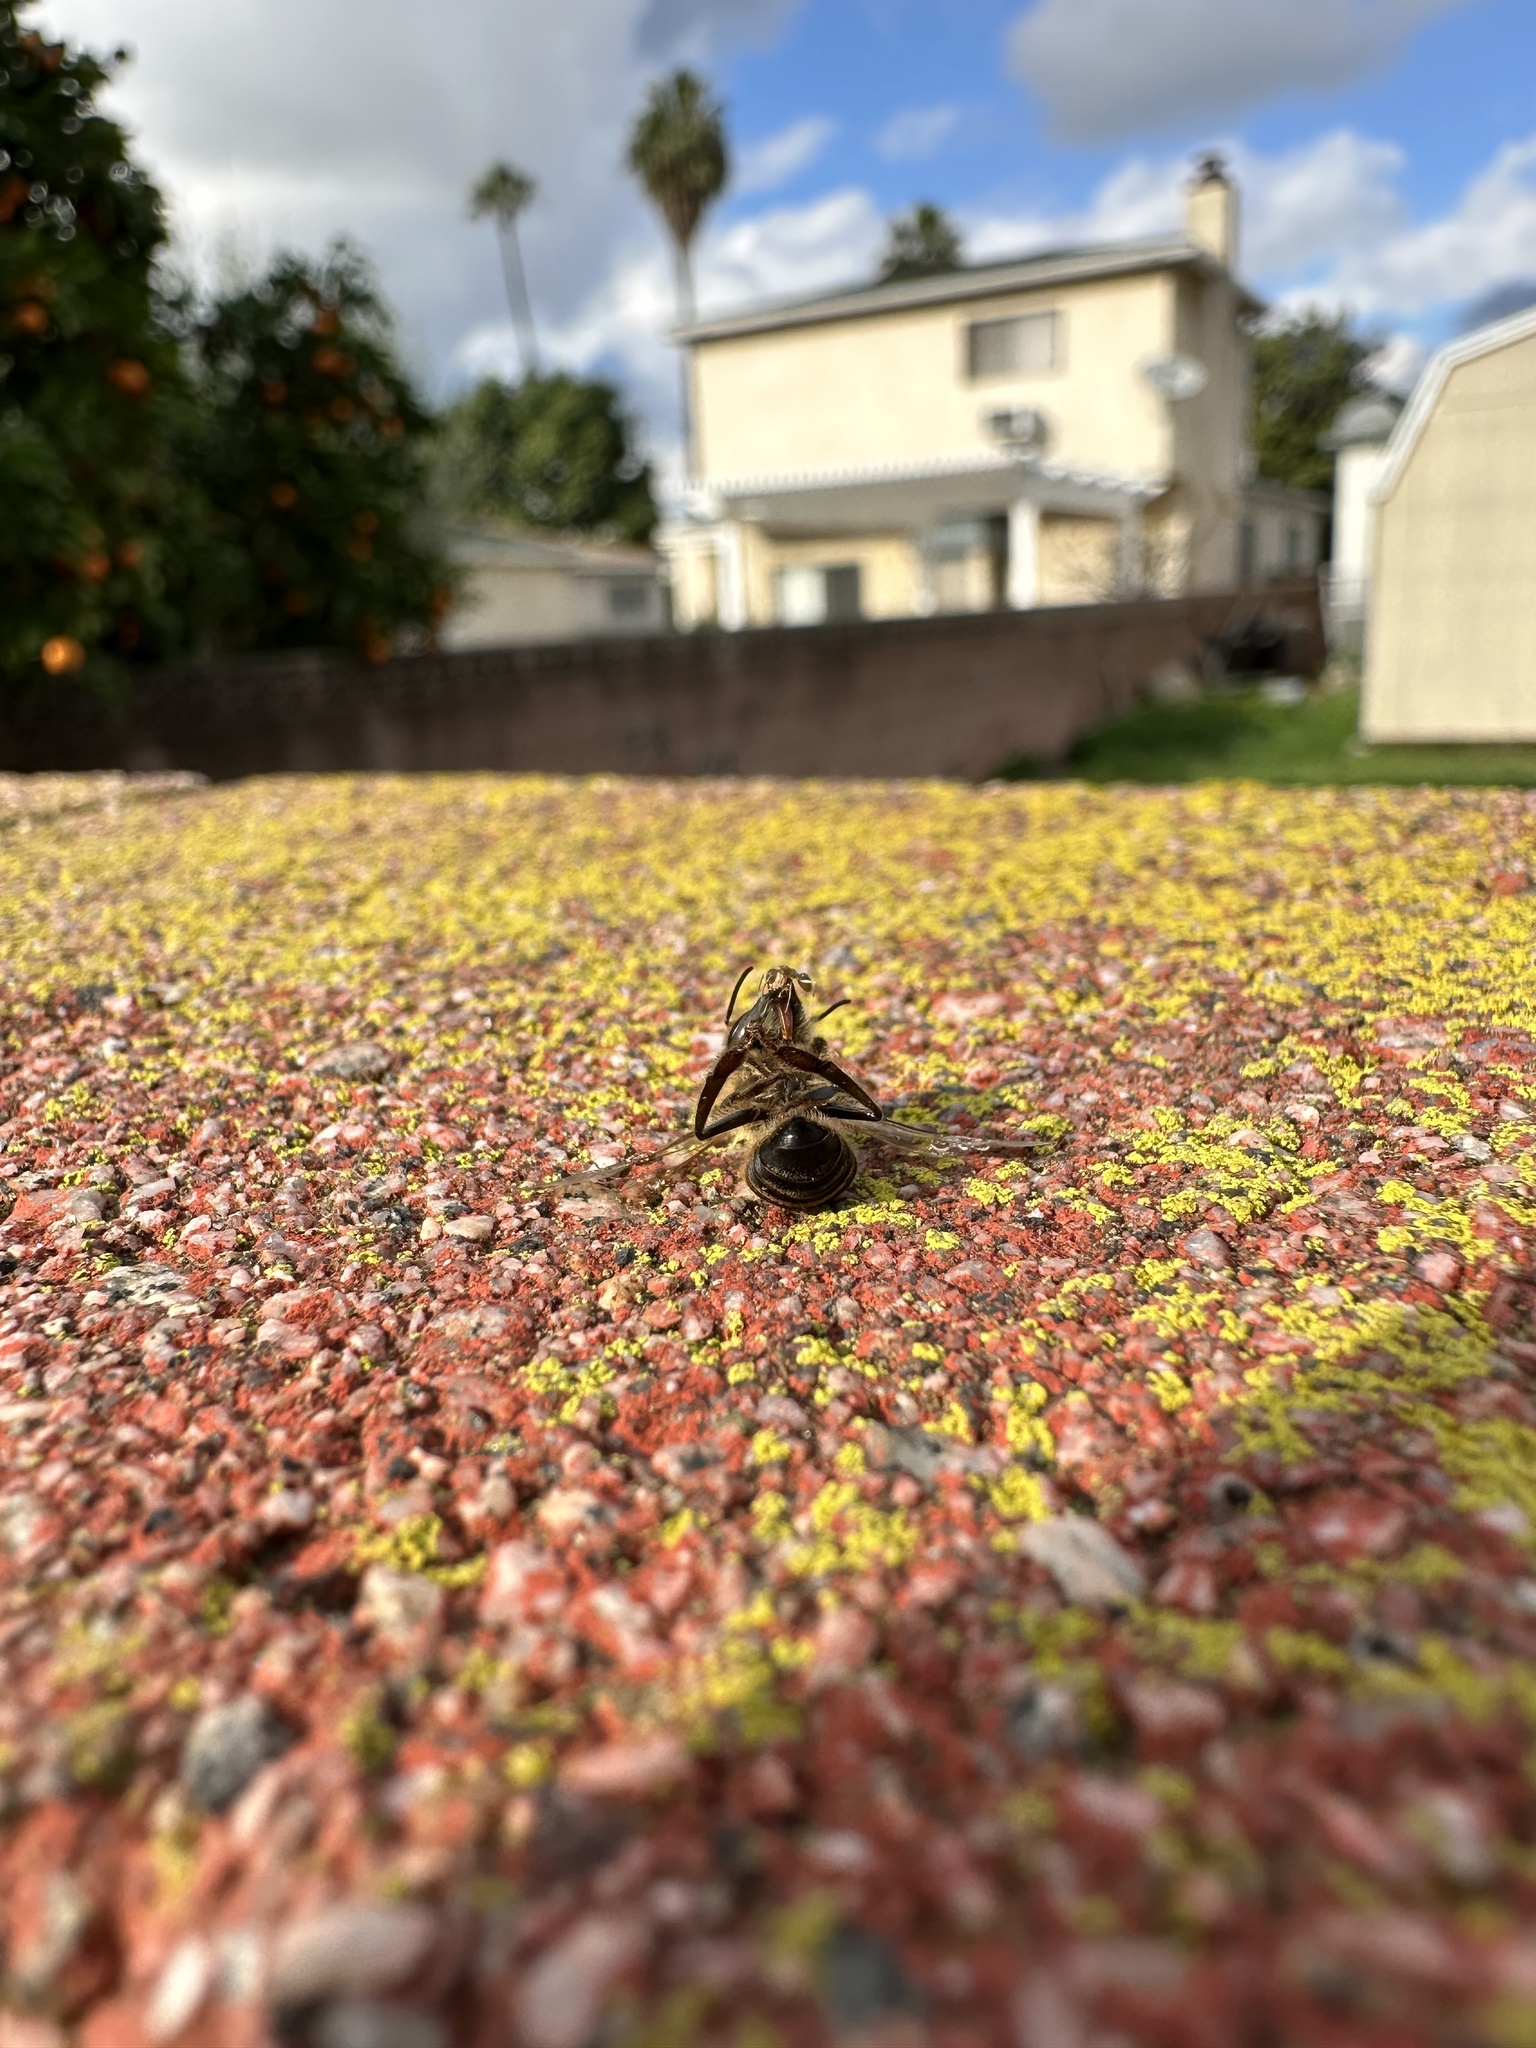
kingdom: Animalia
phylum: Arthropoda
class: Insecta
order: Hymenoptera
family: Apidae
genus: Apis
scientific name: Apis mellifera
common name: Honey bee
